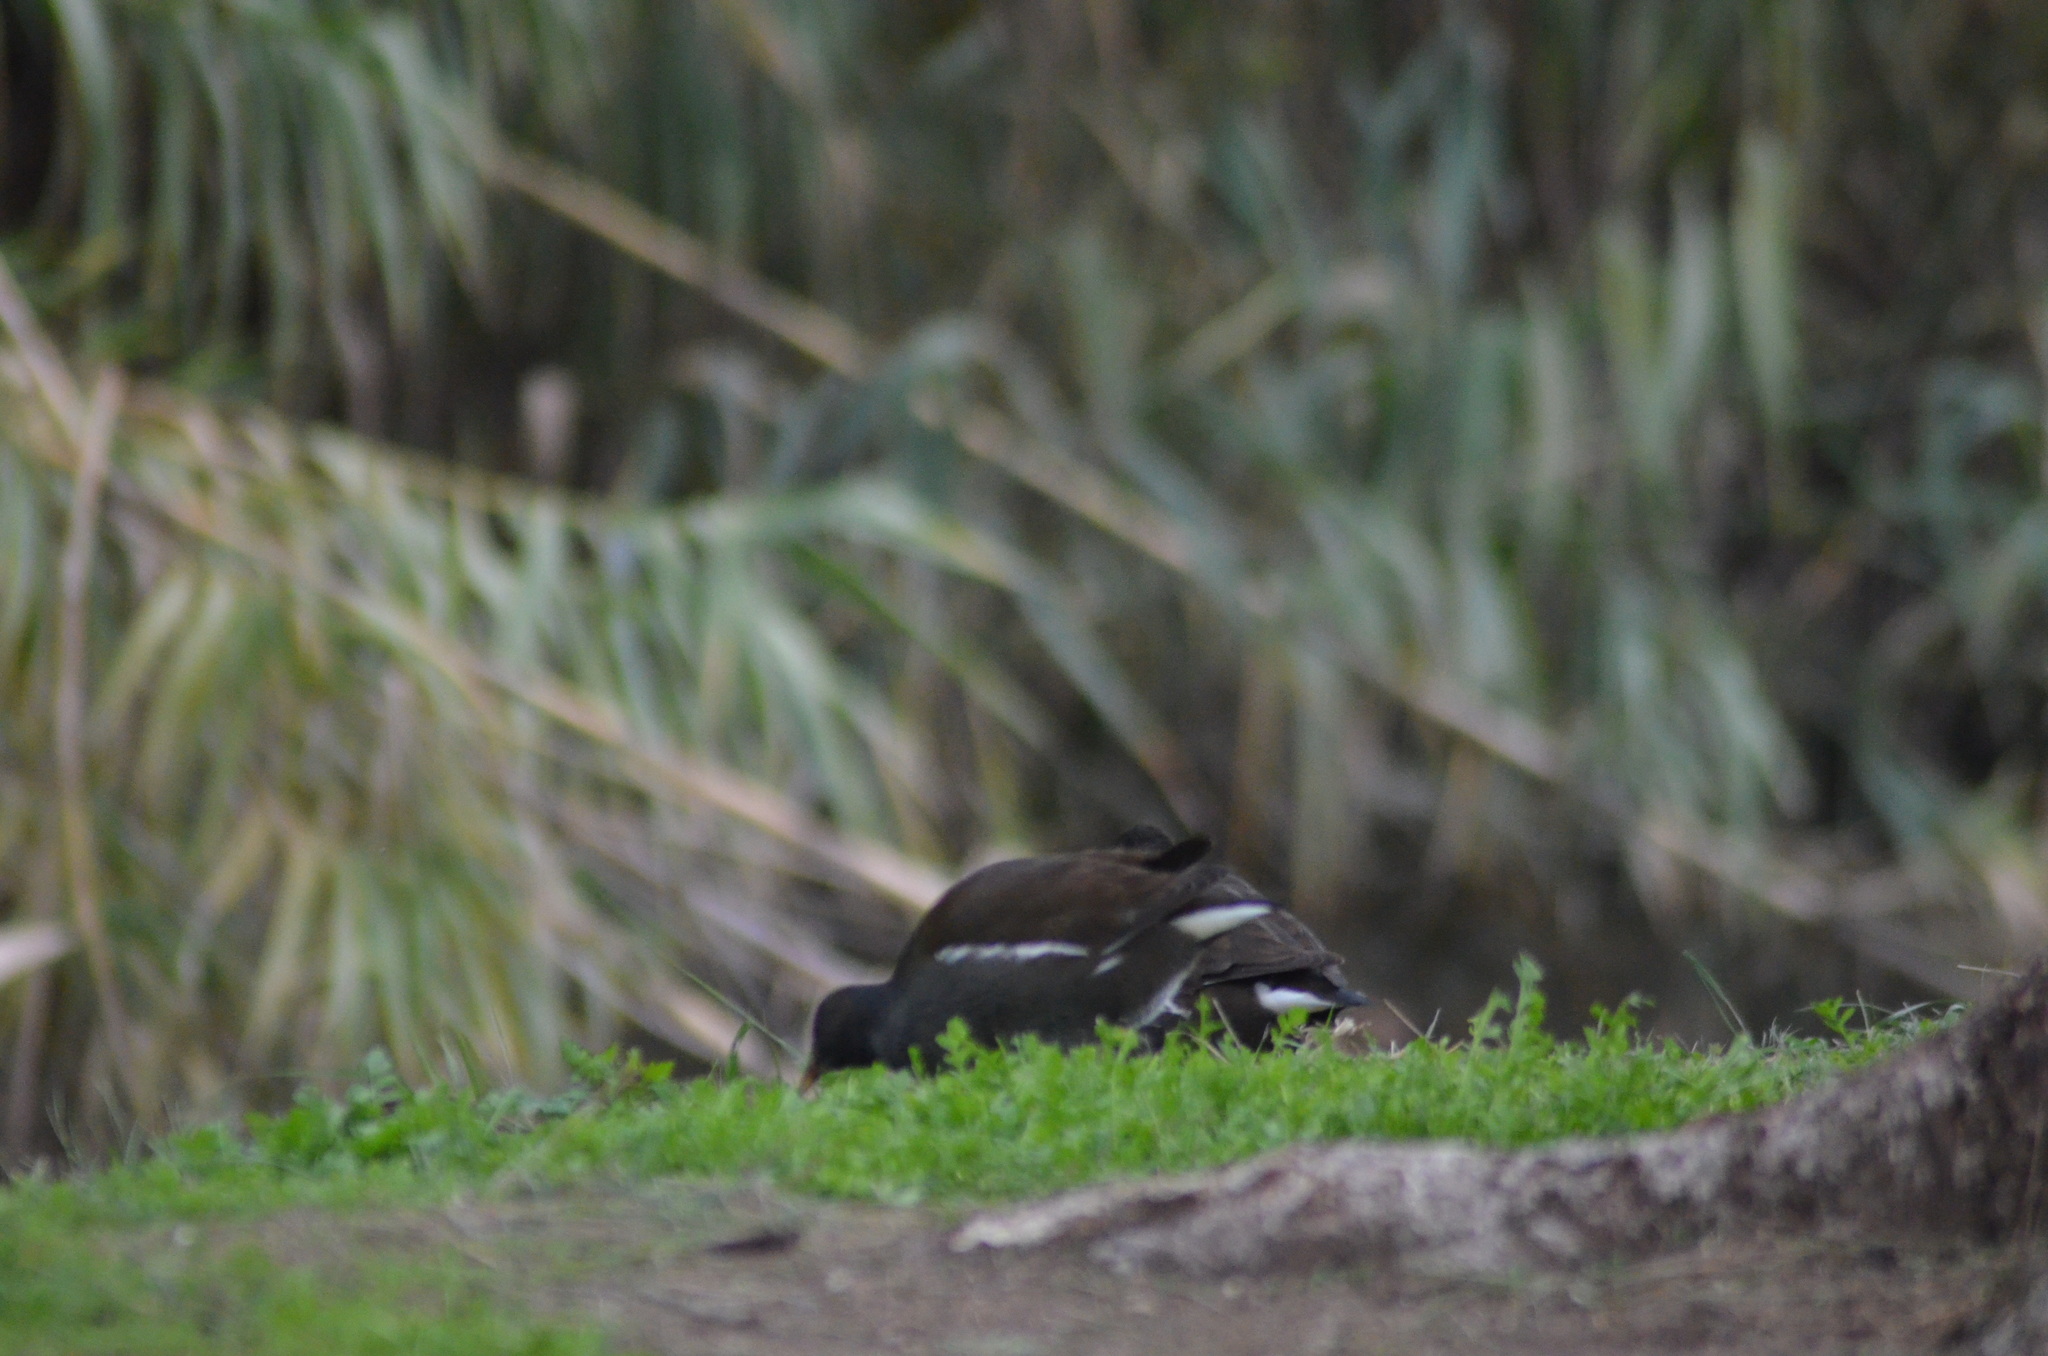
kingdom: Animalia
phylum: Chordata
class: Aves
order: Gruiformes
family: Rallidae
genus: Gallinula
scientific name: Gallinula chloropus
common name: Common moorhen
